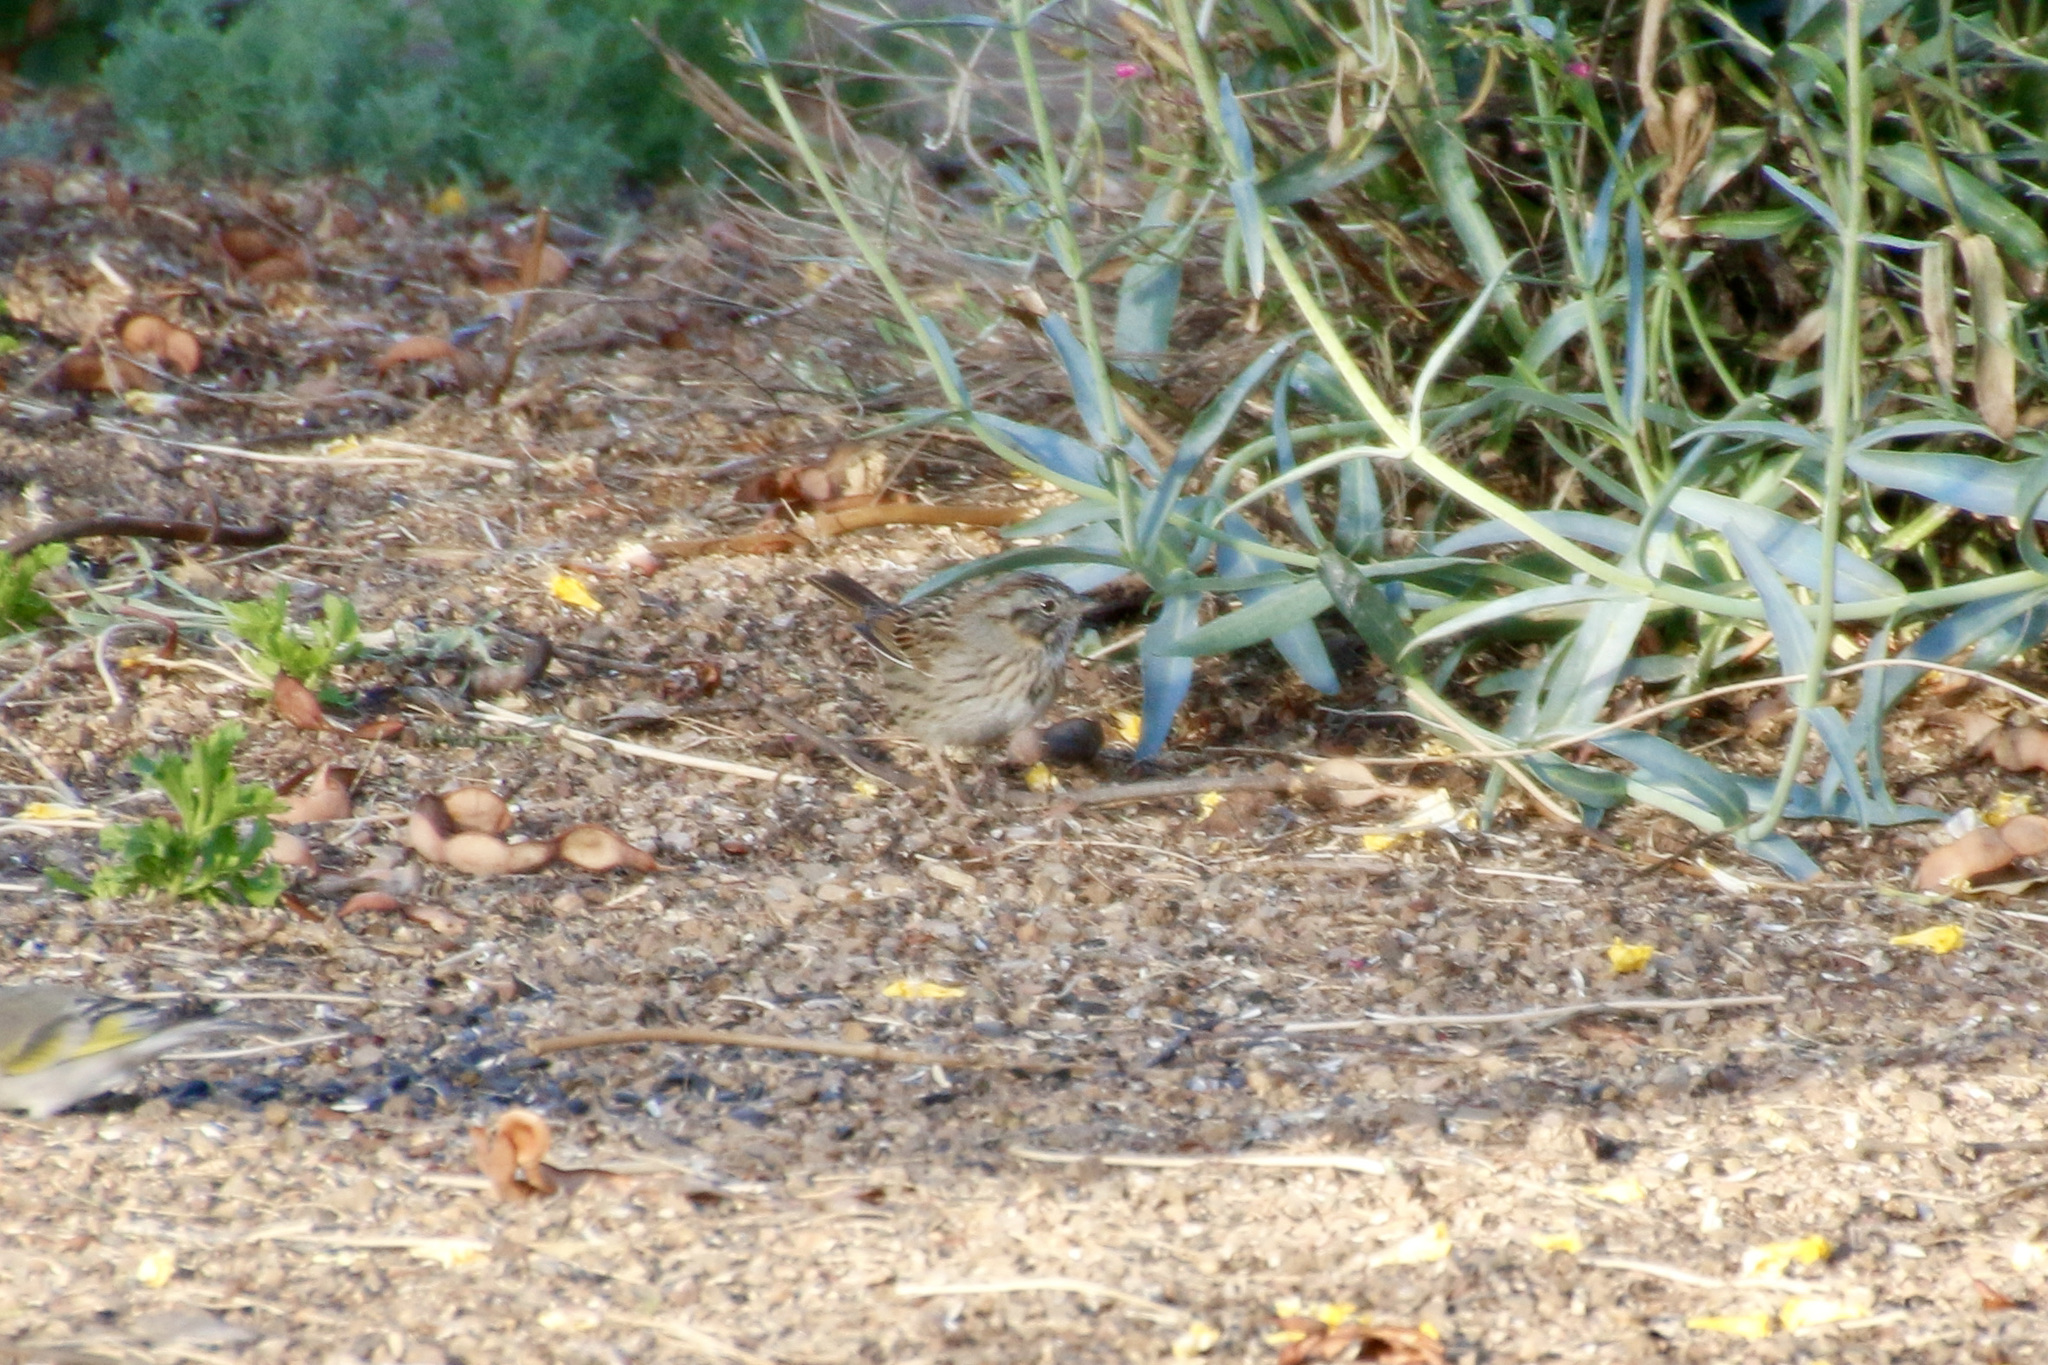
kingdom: Animalia
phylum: Chordata
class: Aves
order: Passeriformes
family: Passerellidae
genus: Melospiza
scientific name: Melospiza lincolnii
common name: Lincoln's sparrow
